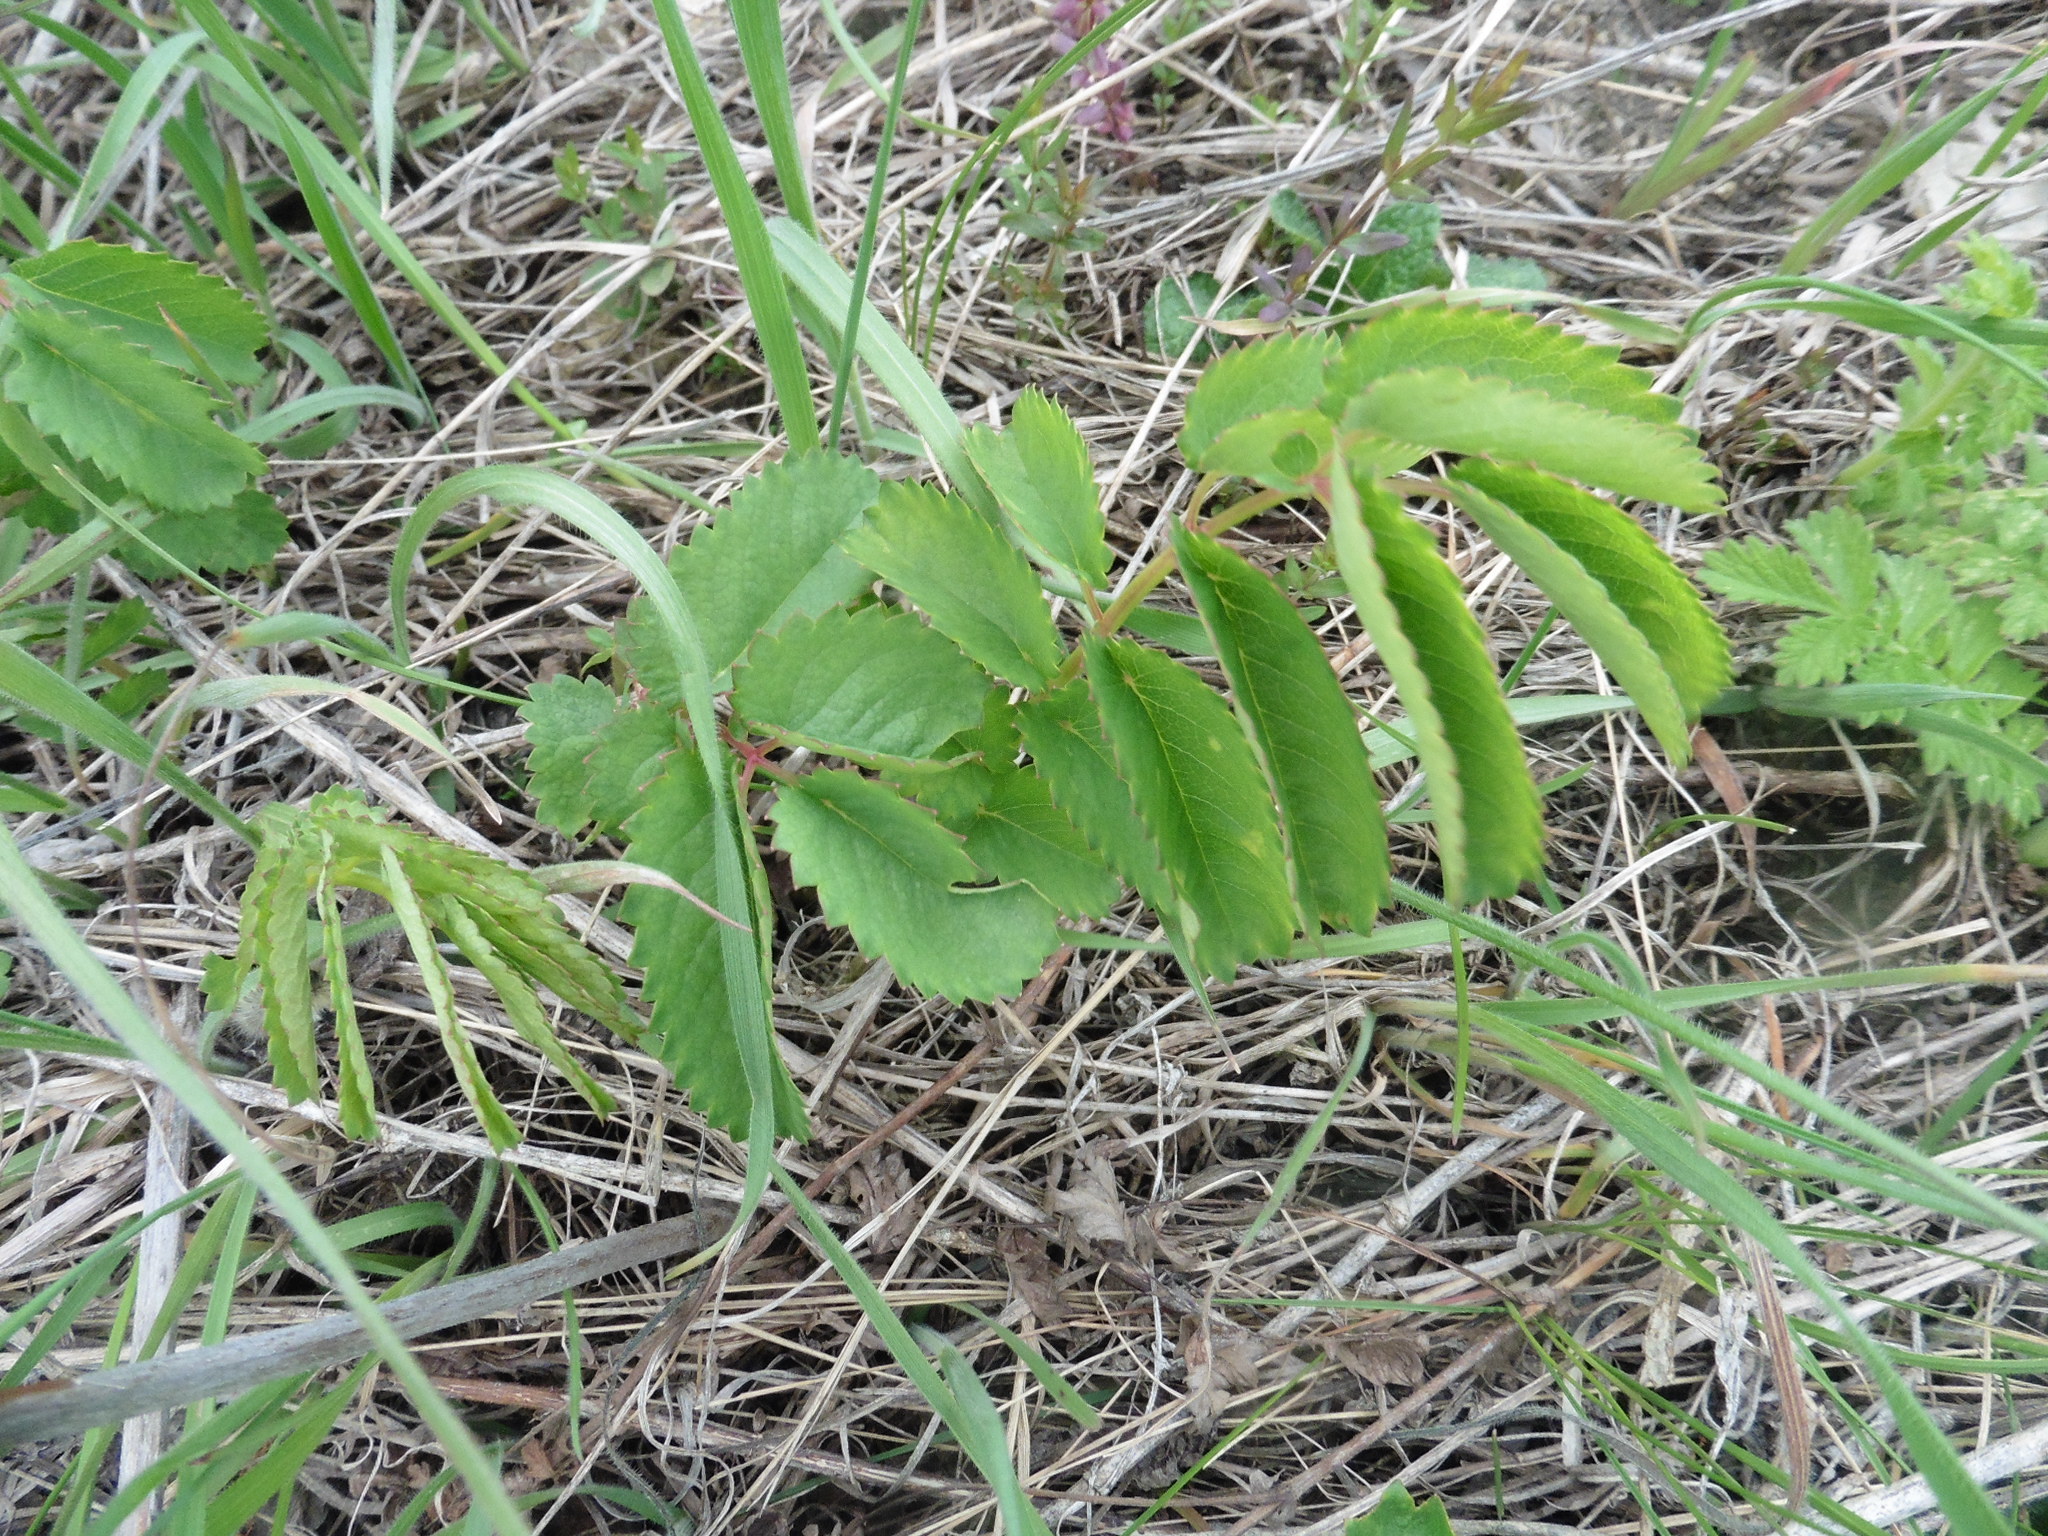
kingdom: Plantae
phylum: Tracheophyta
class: Magnoliopsida
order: Rosales
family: Rosaceae
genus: Sanguisorba
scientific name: Sanguisorba officinalis
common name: Great burnet
